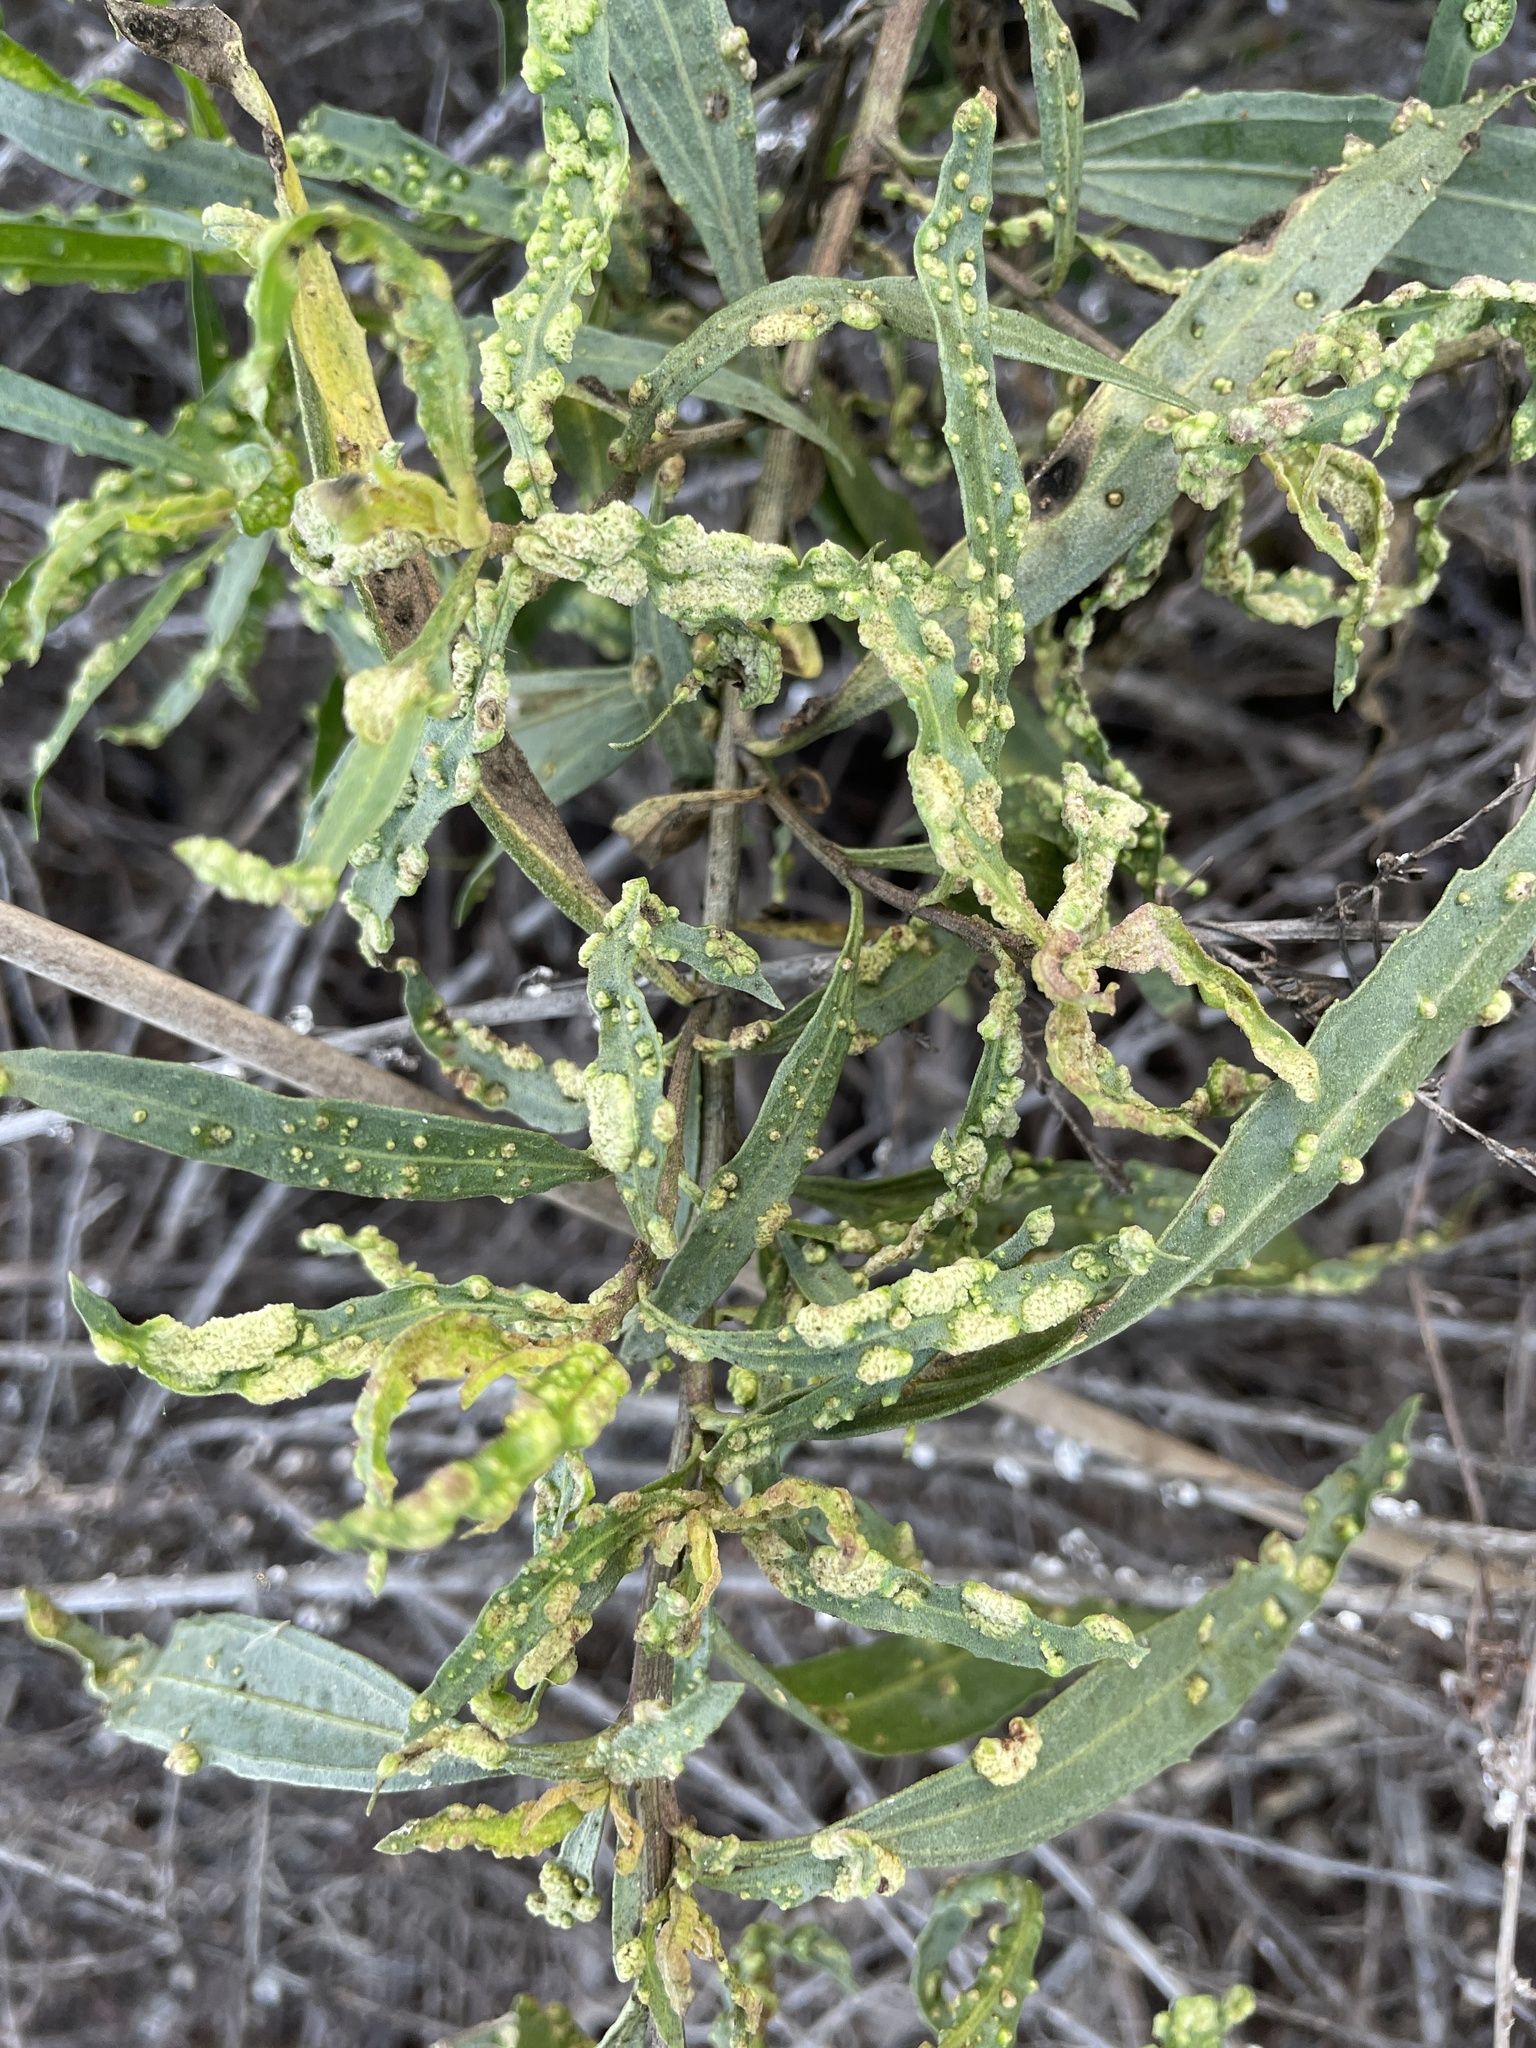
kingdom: Animalia
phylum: Arthropoda
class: Arachnida
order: Trombidiformes
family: Eriophyidae
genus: Aceria
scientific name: Aceria
